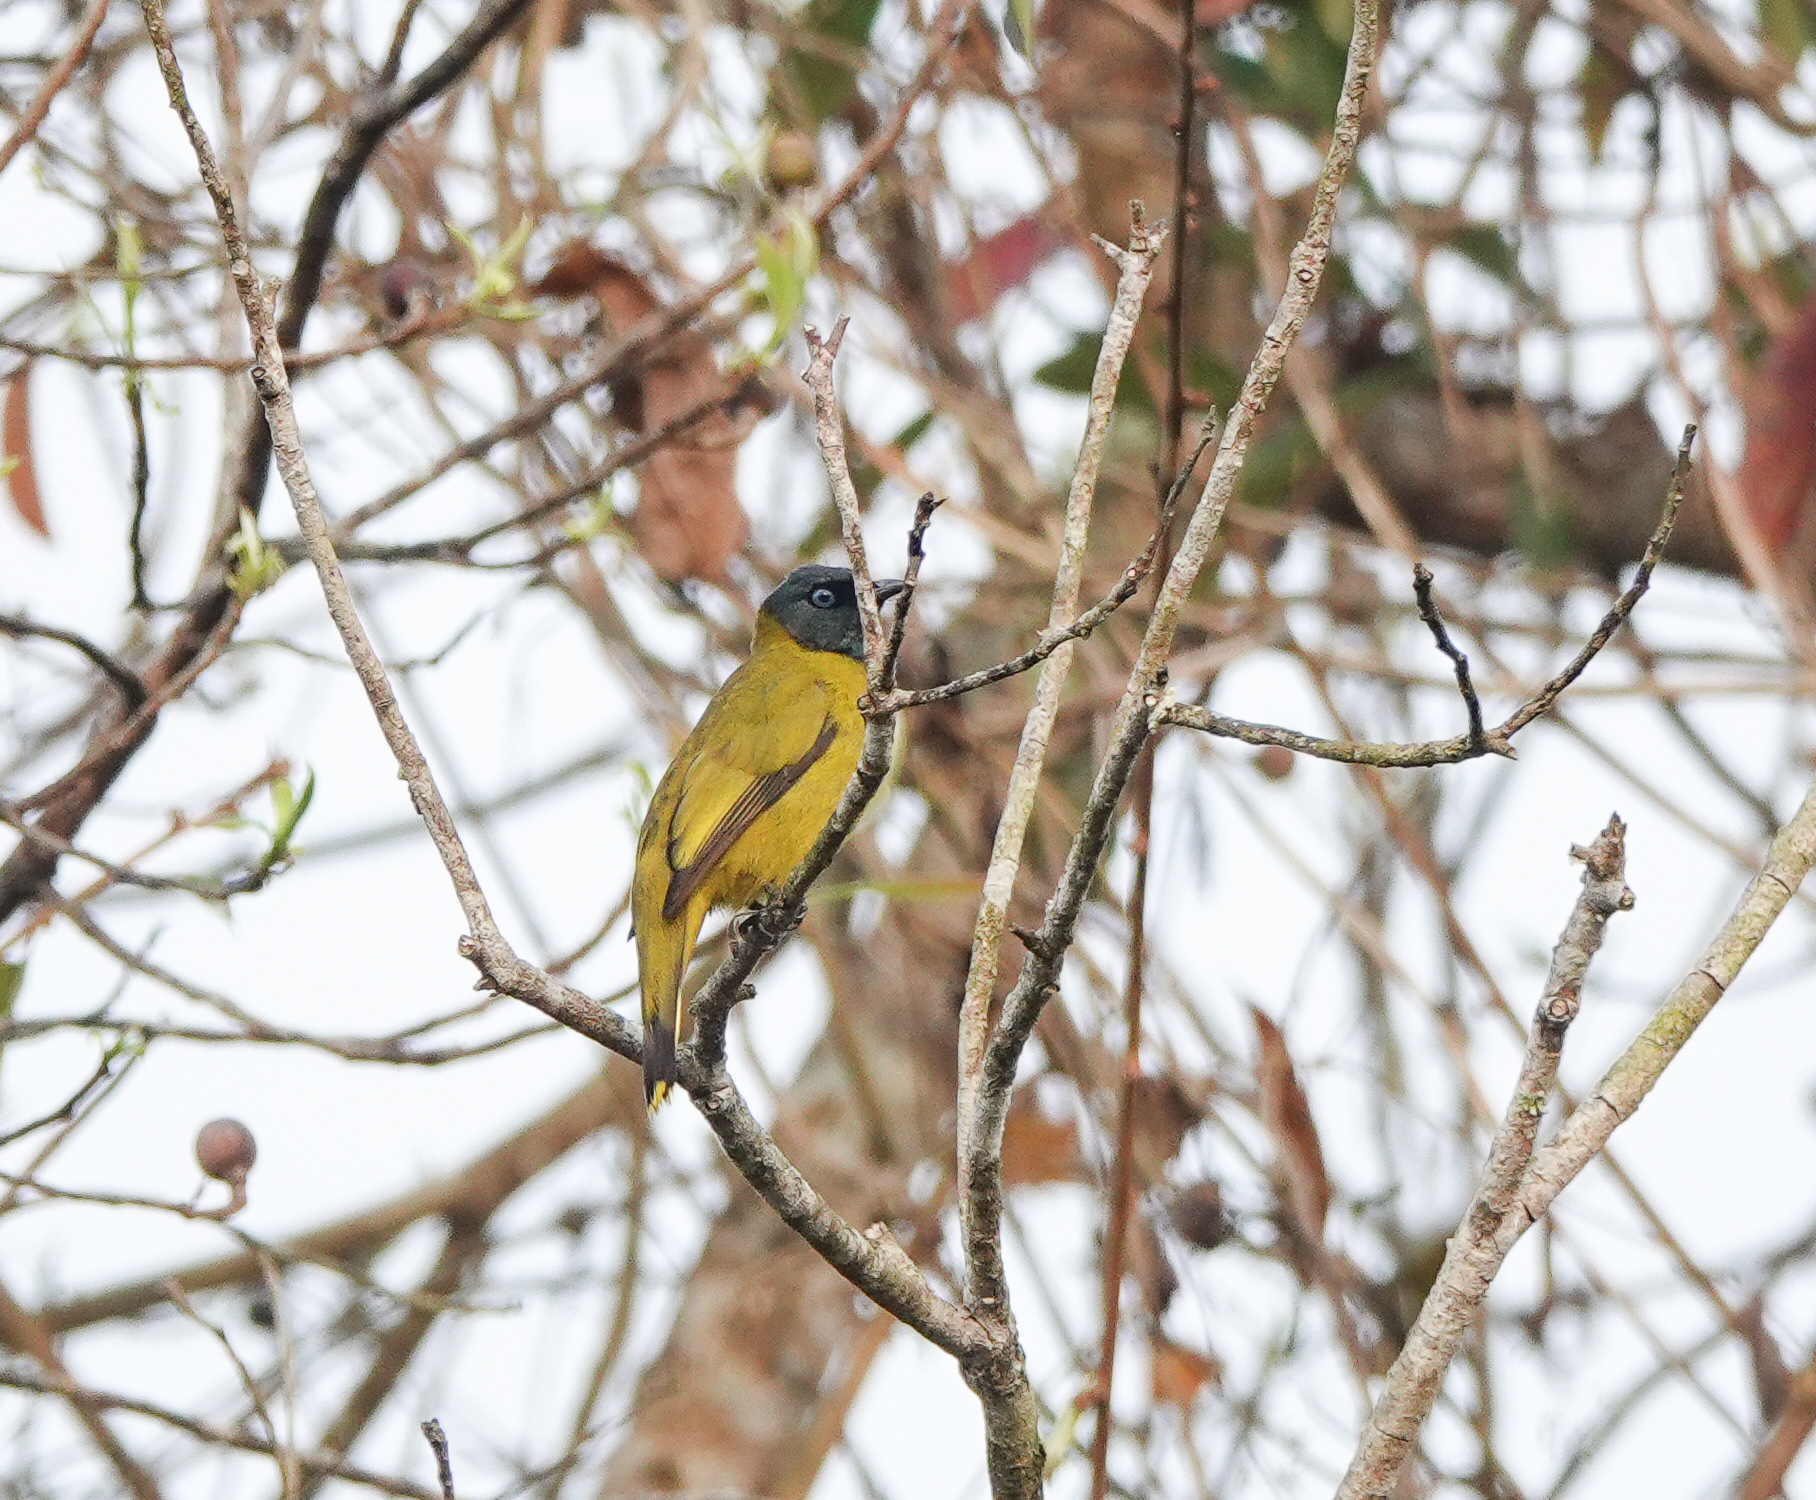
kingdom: Animalia
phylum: Chordata
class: Aves
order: Passeriformes
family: Pycnonotidae
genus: Microtarsus
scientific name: Microtarsus
